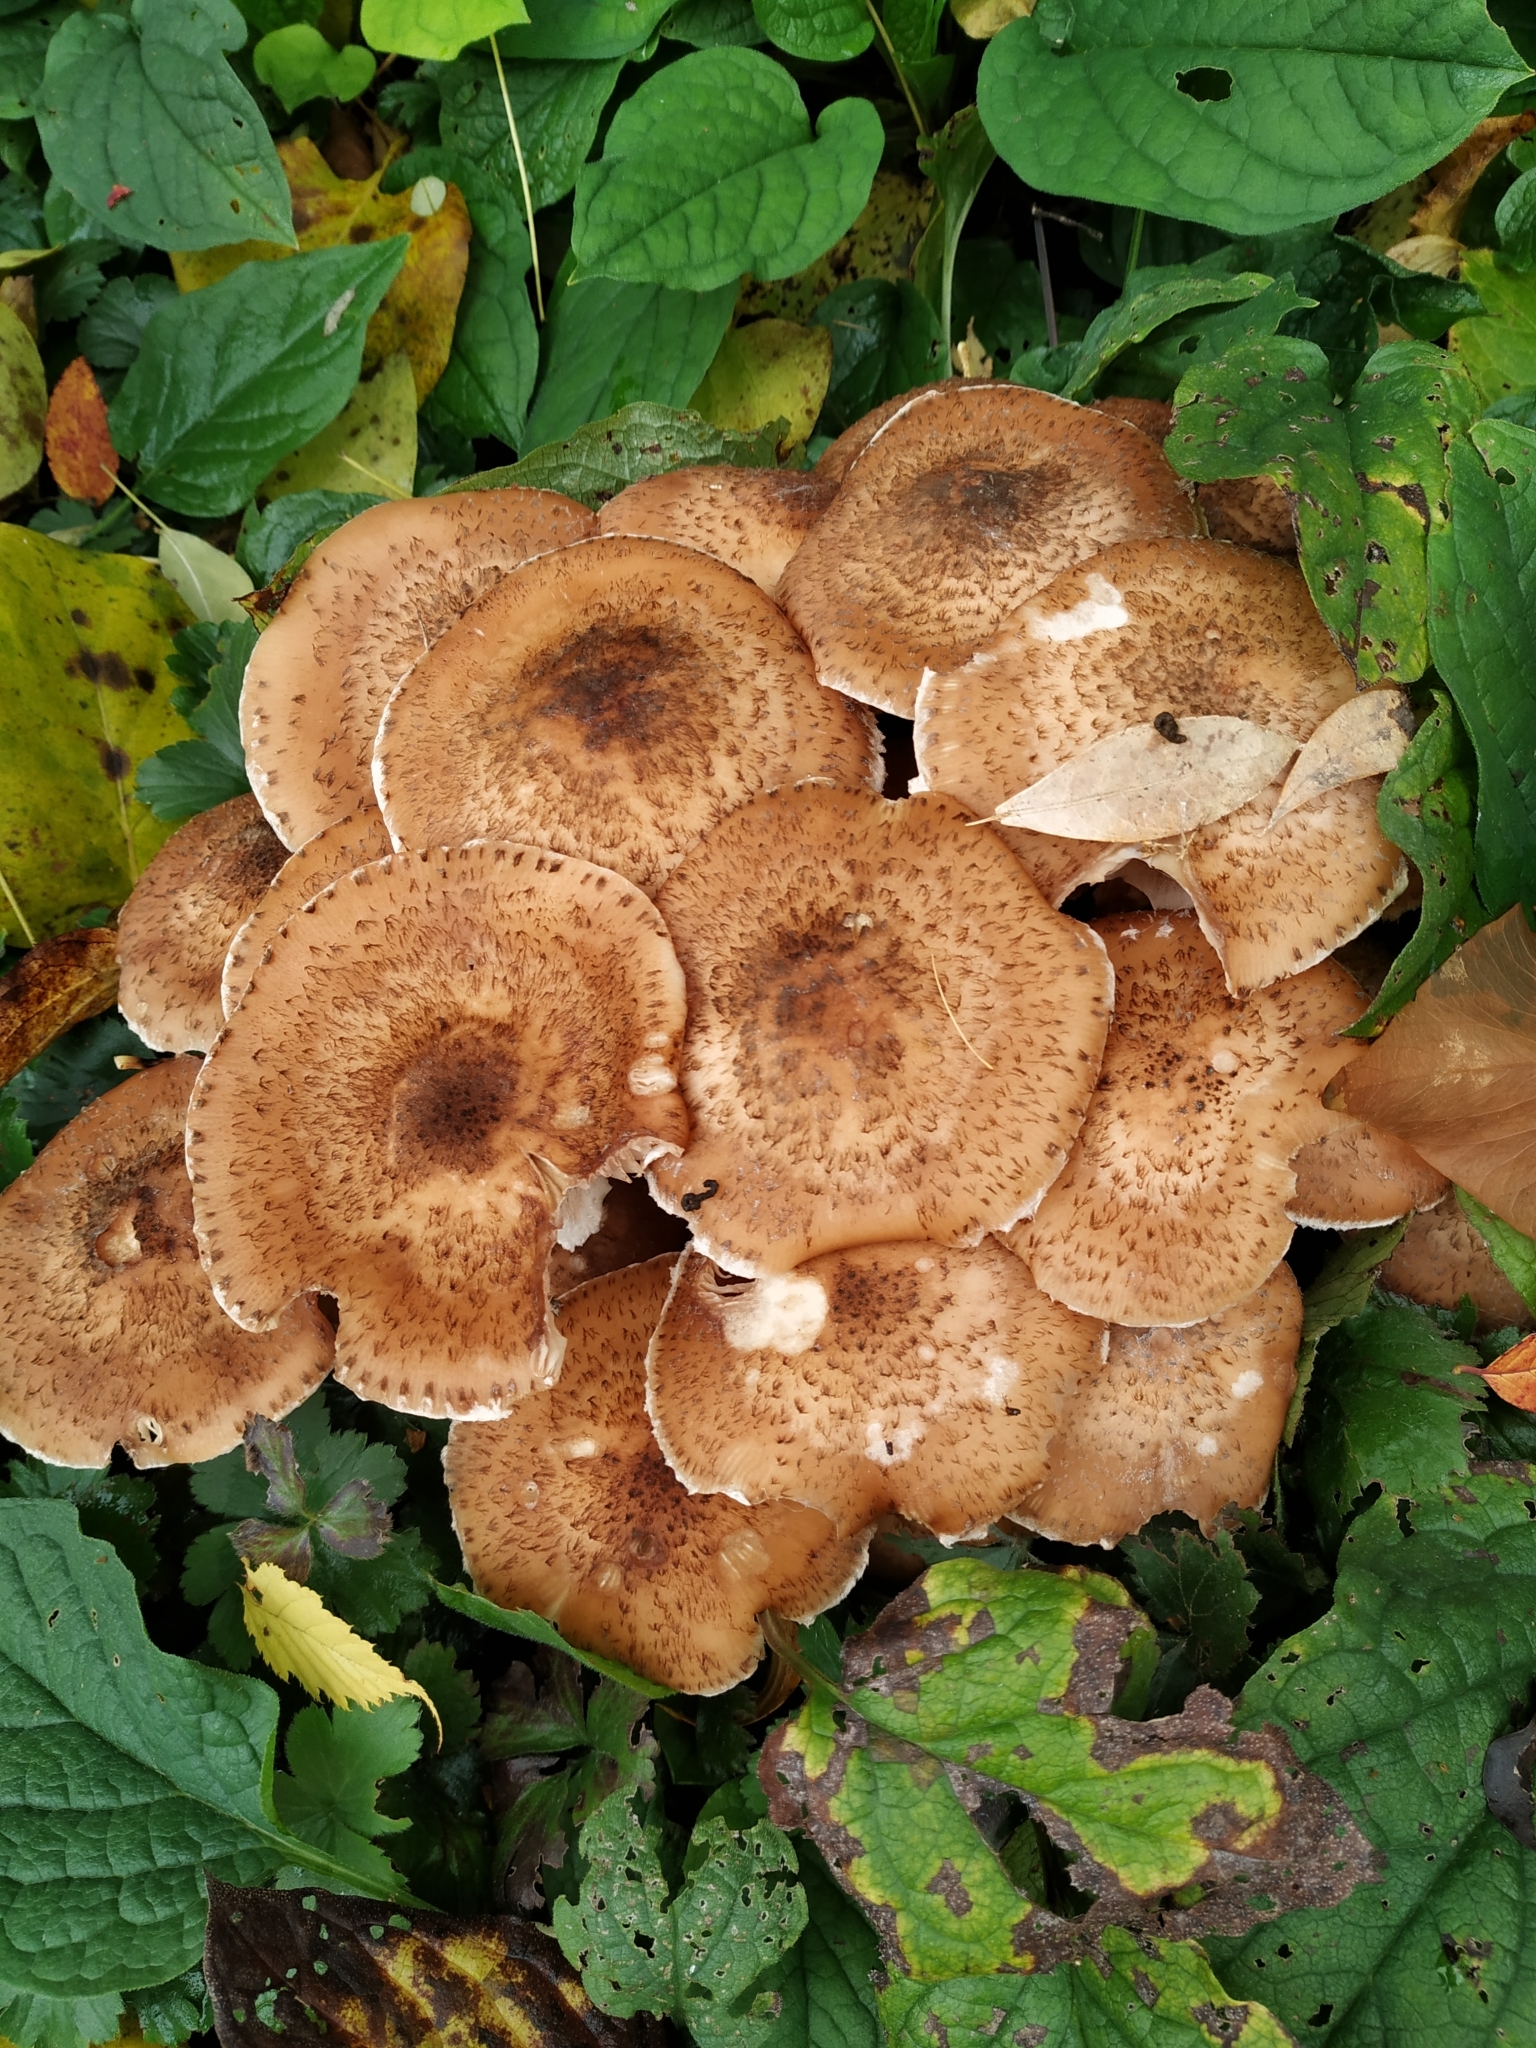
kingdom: Fungi
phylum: Basidiomycota
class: Agaricomycetes
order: Agaricales
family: Physalacriaceae
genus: Desarmillaria
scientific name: Desarmillaria tabescens
